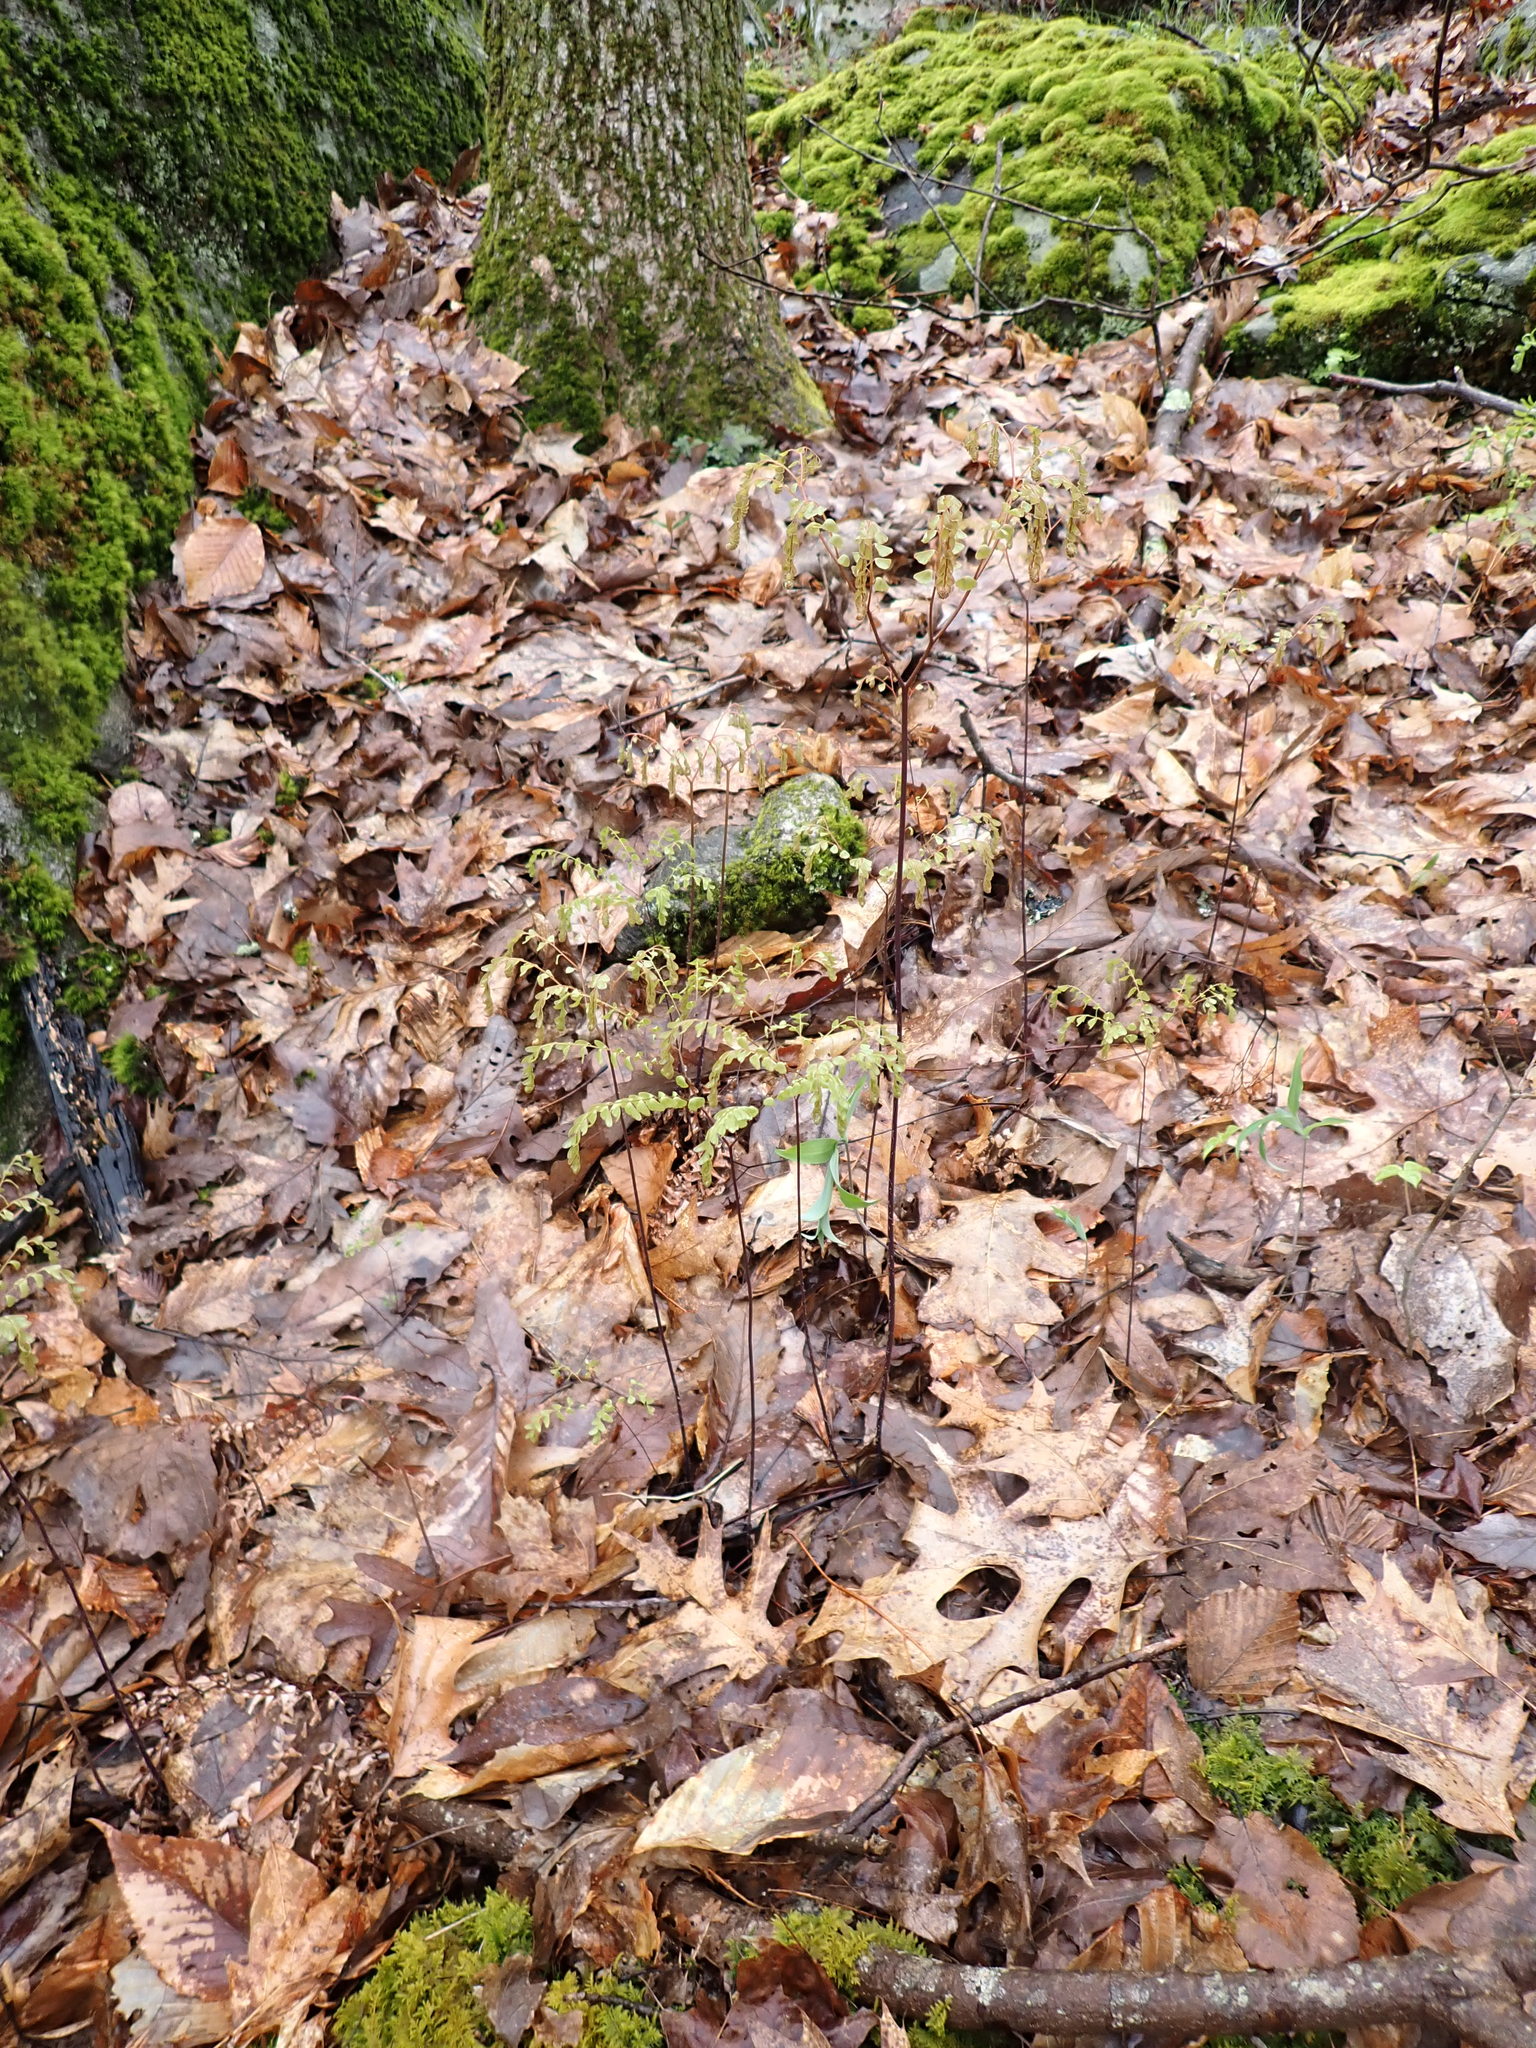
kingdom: Plantae
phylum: Tracheophyta
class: Polypodiopsida
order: Polypodiales
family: Pteridaceae
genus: Adiantum
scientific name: Adiantum pedatum
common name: Five-finger fern
